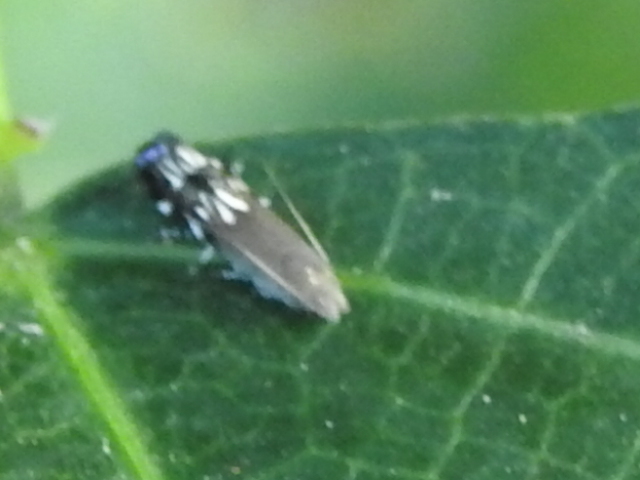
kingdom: Animalia
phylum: Arthropoda
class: Insecta
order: Lepidoptera
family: Gelechiidae
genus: Anacampsis
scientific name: Anacampsis levipedella
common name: Silver-dashed anacampsis
